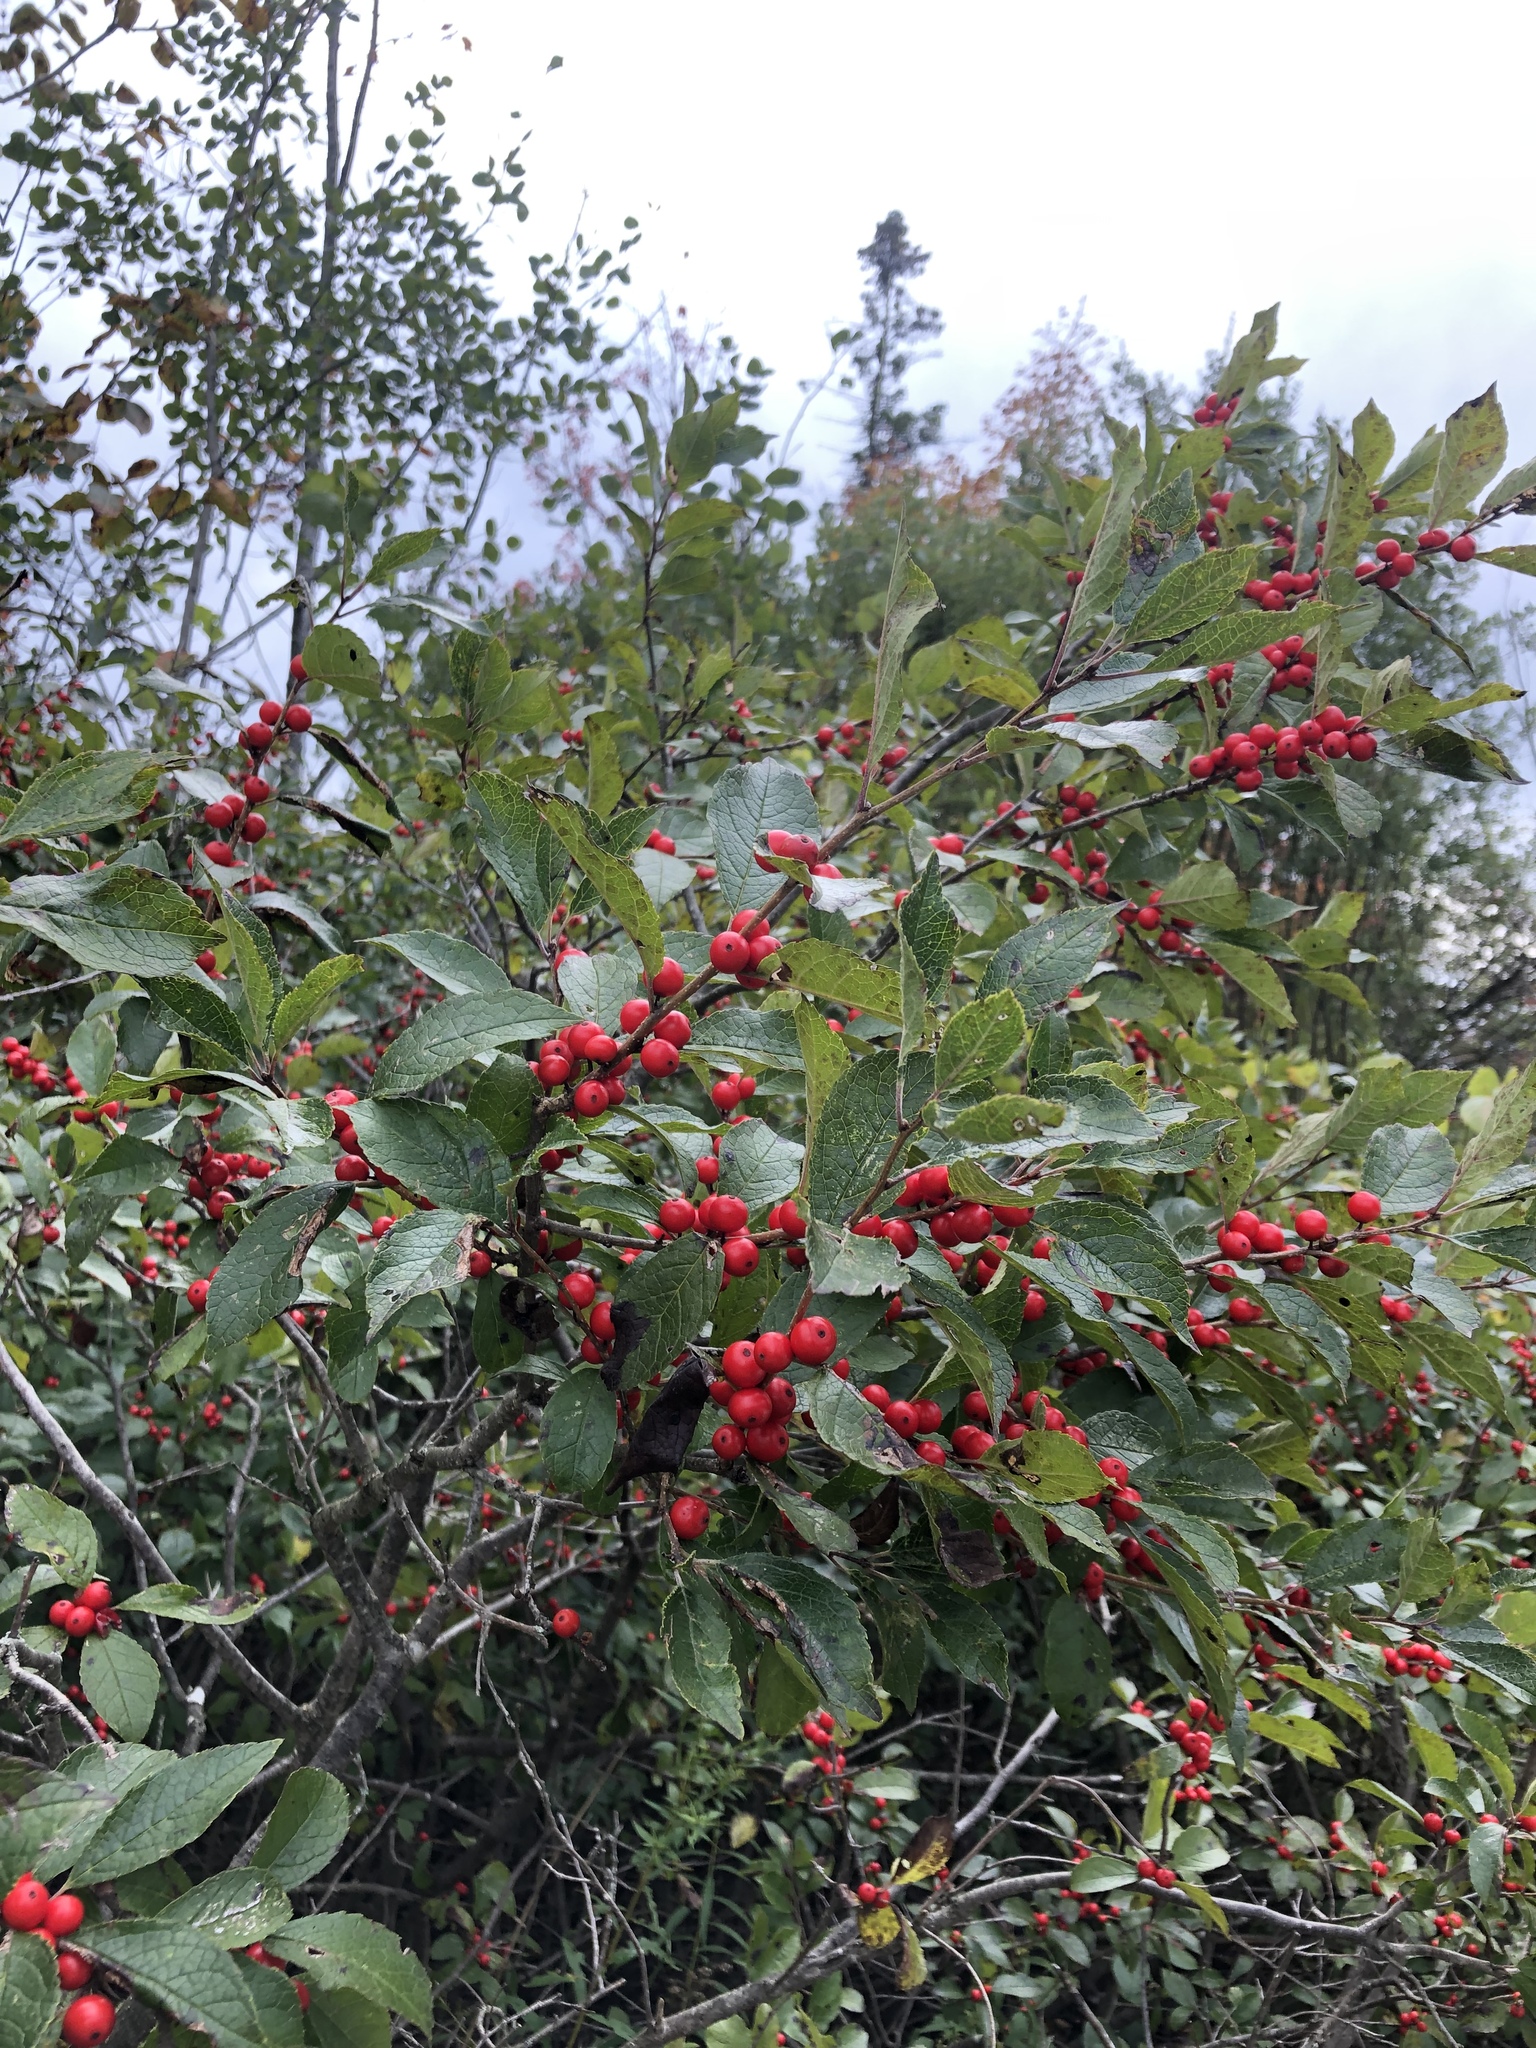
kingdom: Plantae
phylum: Tracheophyta
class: Magnoliopsida
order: Aquifoliales
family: Aquifoliaceae
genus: Ilex
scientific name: Ilex verticillata
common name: Virginia winterberry
